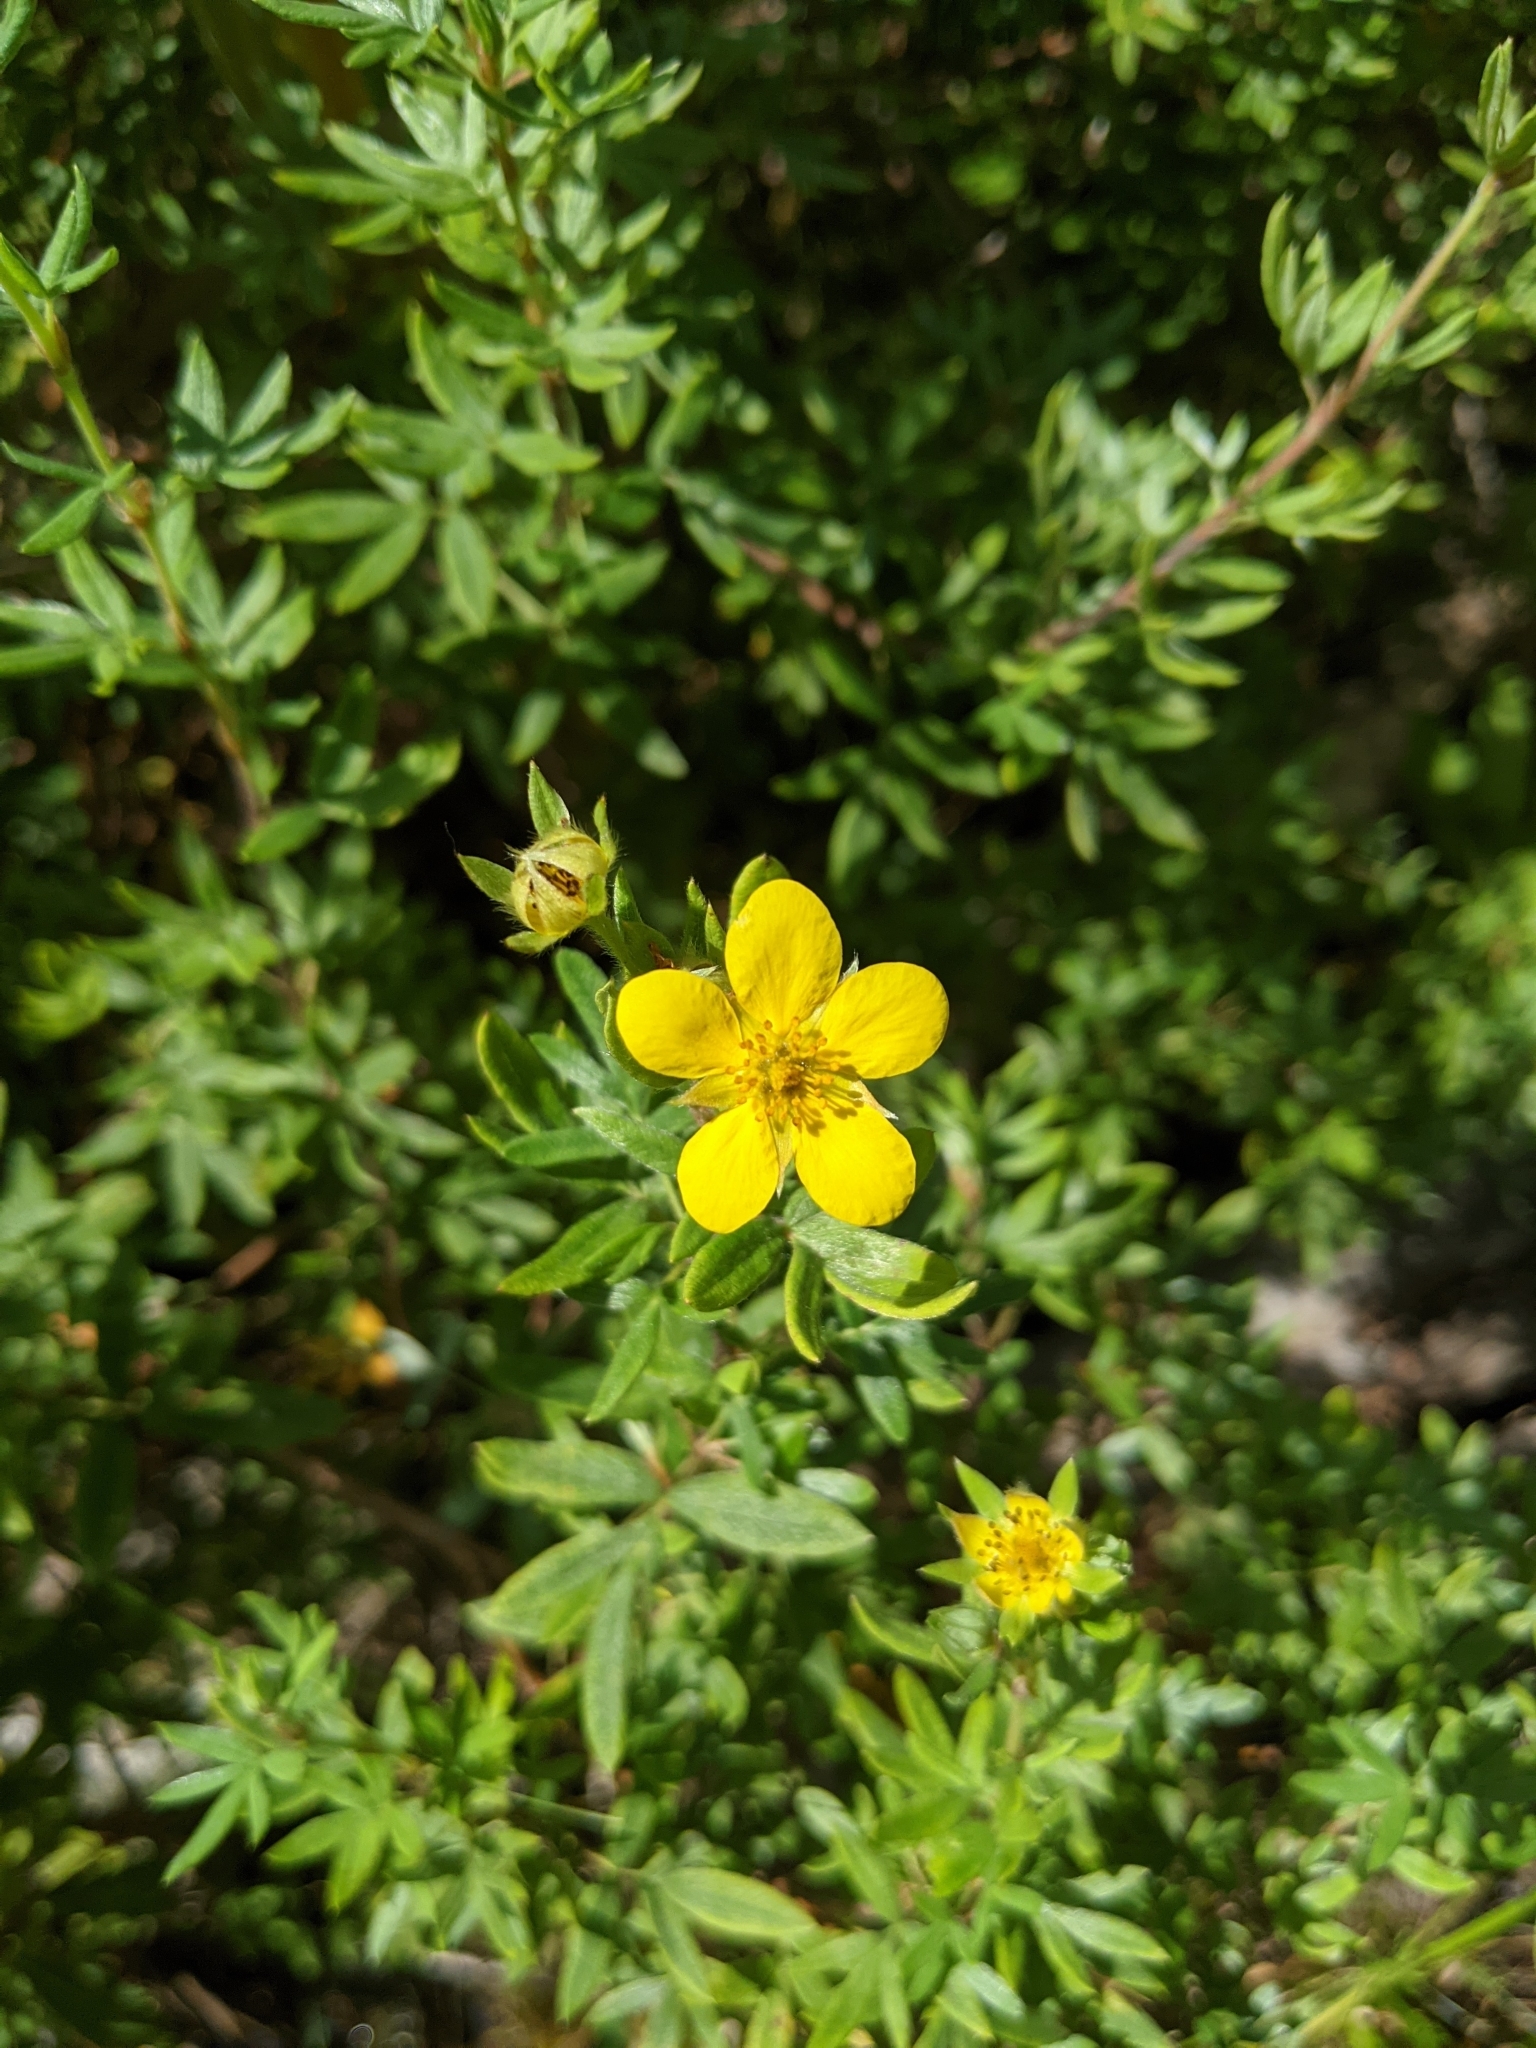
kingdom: Plantae
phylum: Tracheophyta
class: Magnoliopsida
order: Rosales
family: Rosaceae
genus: Dasiphora
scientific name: Dasiphora fruticosa
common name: Shrubby cinquefoil
